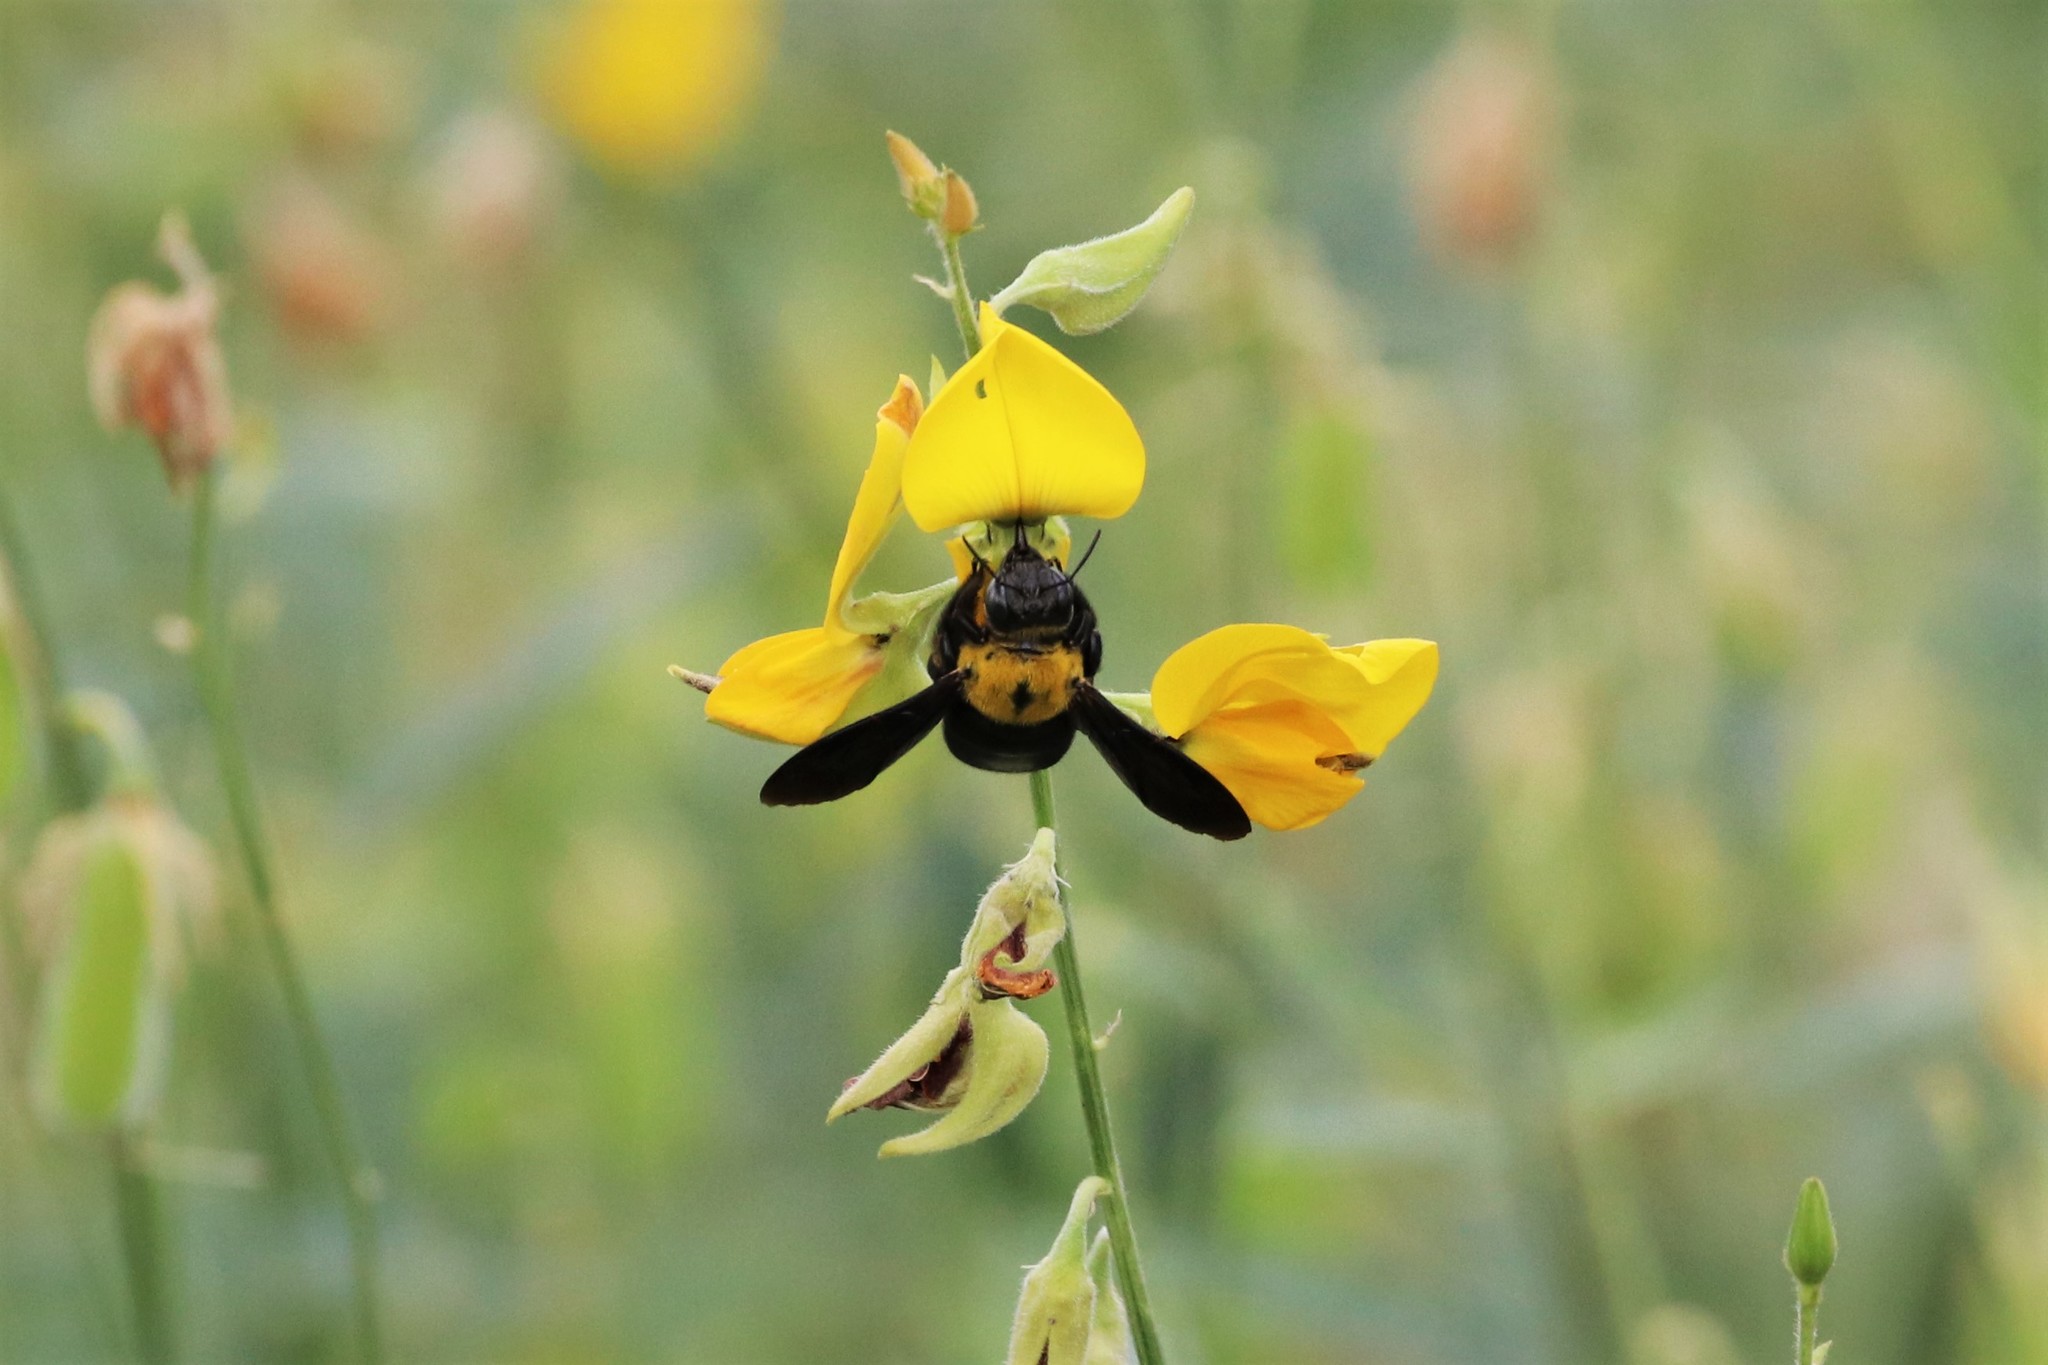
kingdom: Animalia
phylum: Arthropoda
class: Insecta
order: Hymenoptera
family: Apidae
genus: Xylocopa
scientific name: Xylocopa minor
